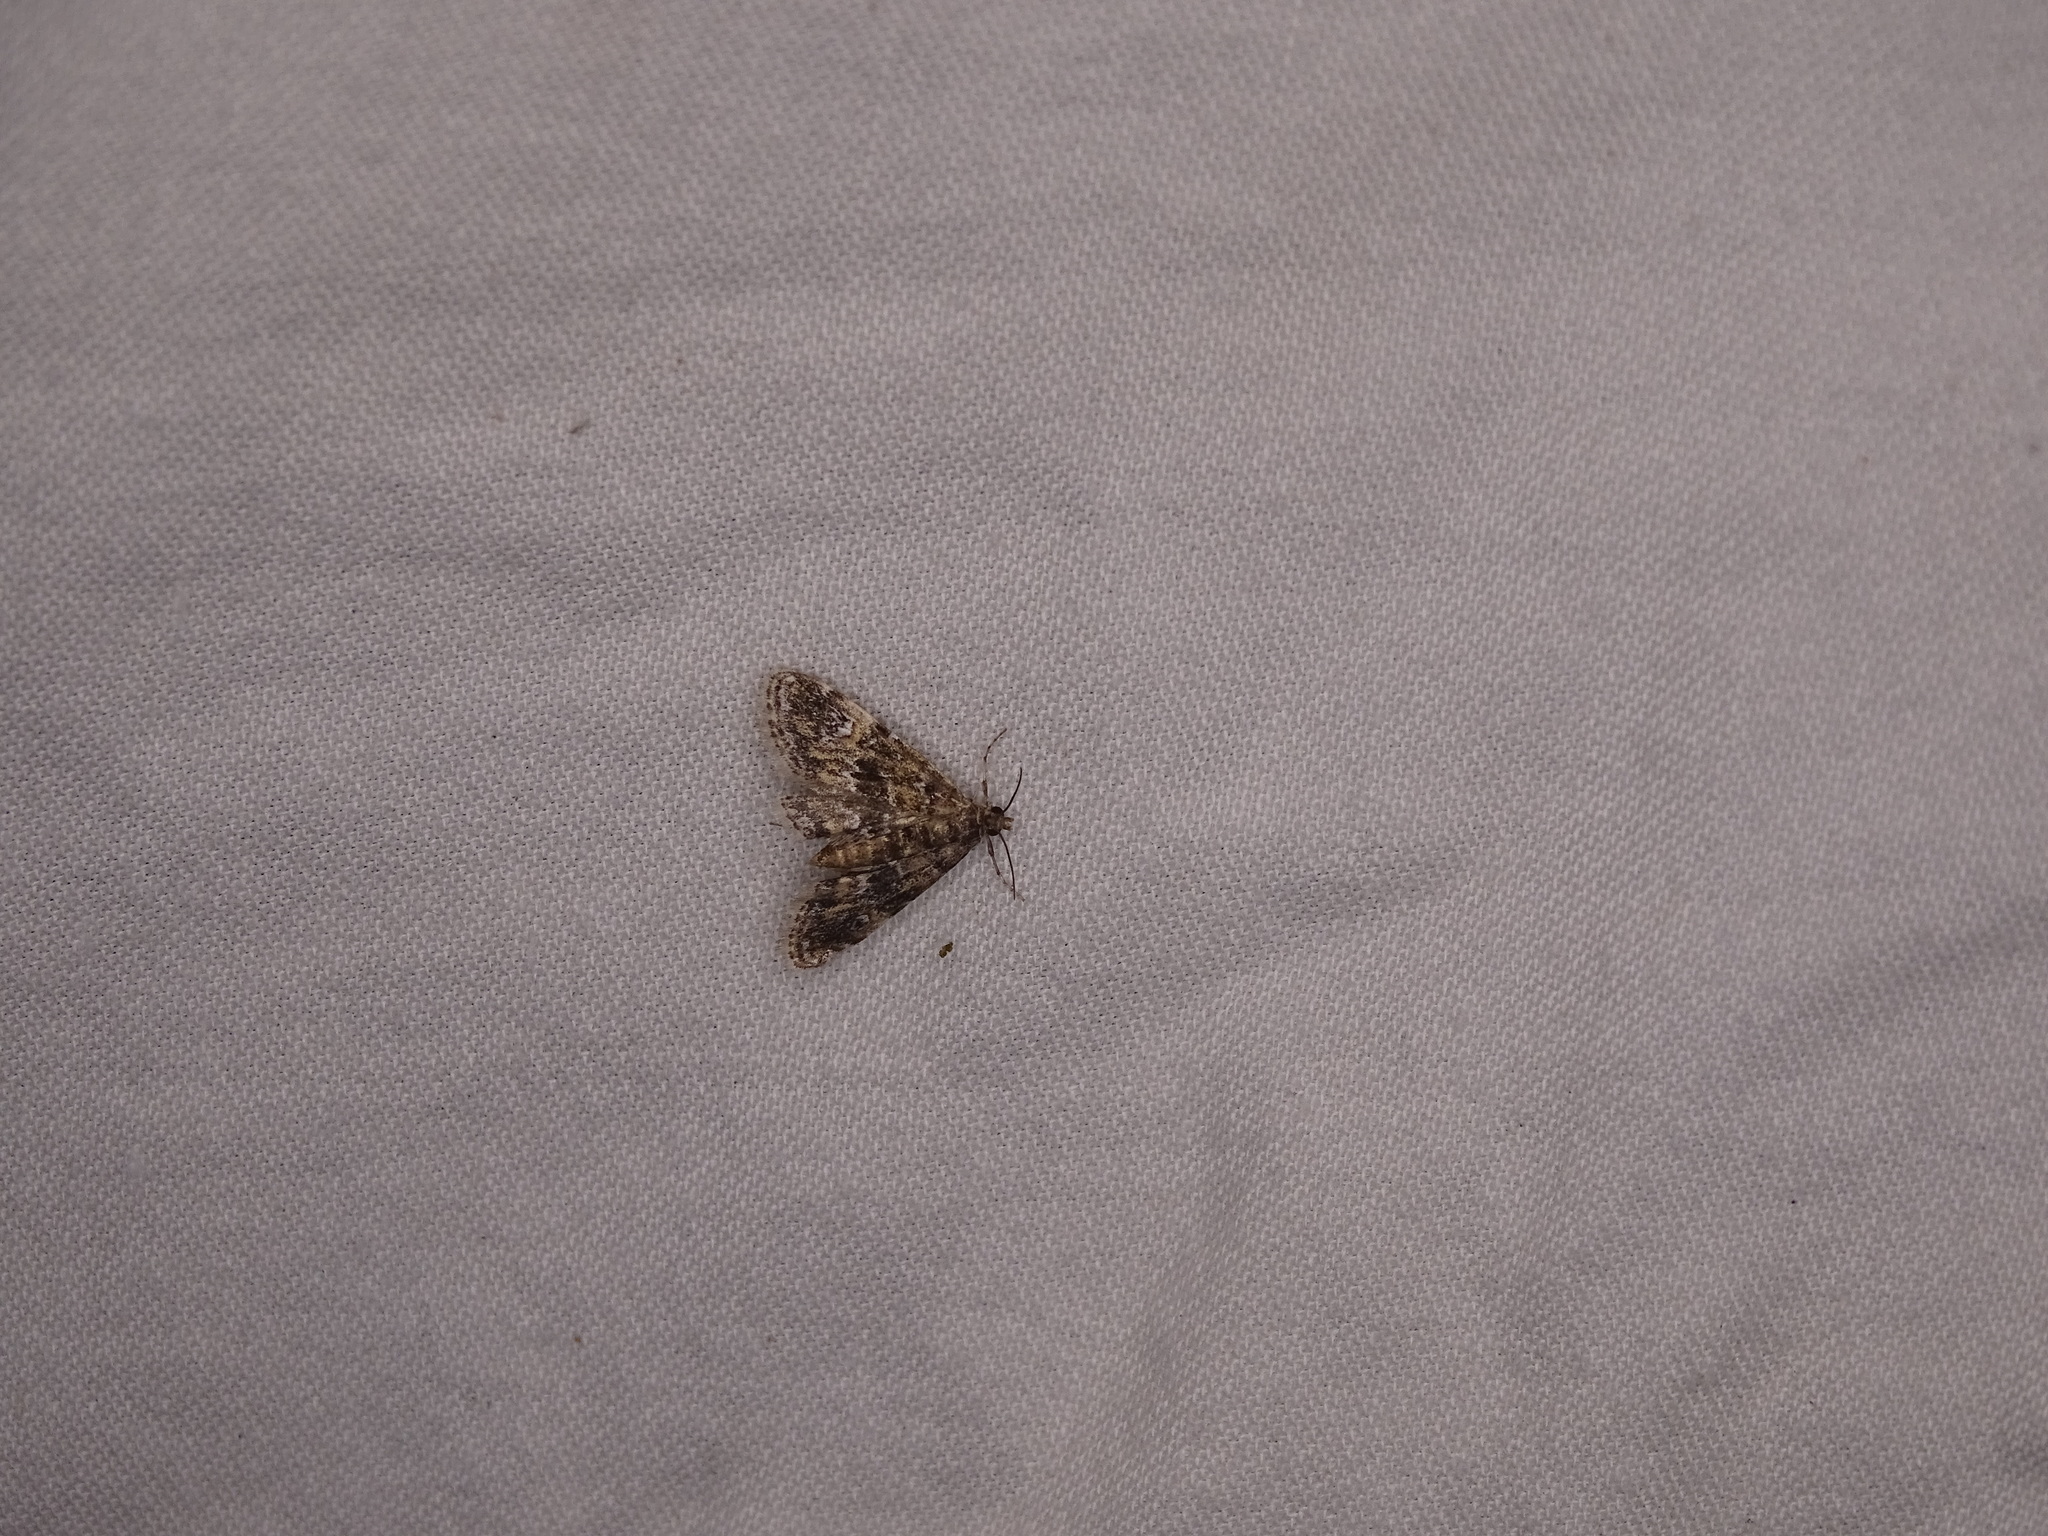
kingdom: Animalia
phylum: Arthropoda
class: Insecta
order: Lepidoptera
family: Crambidae
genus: Elophila
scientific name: Elophila obliteralis
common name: Waterlily leafcutter moth
